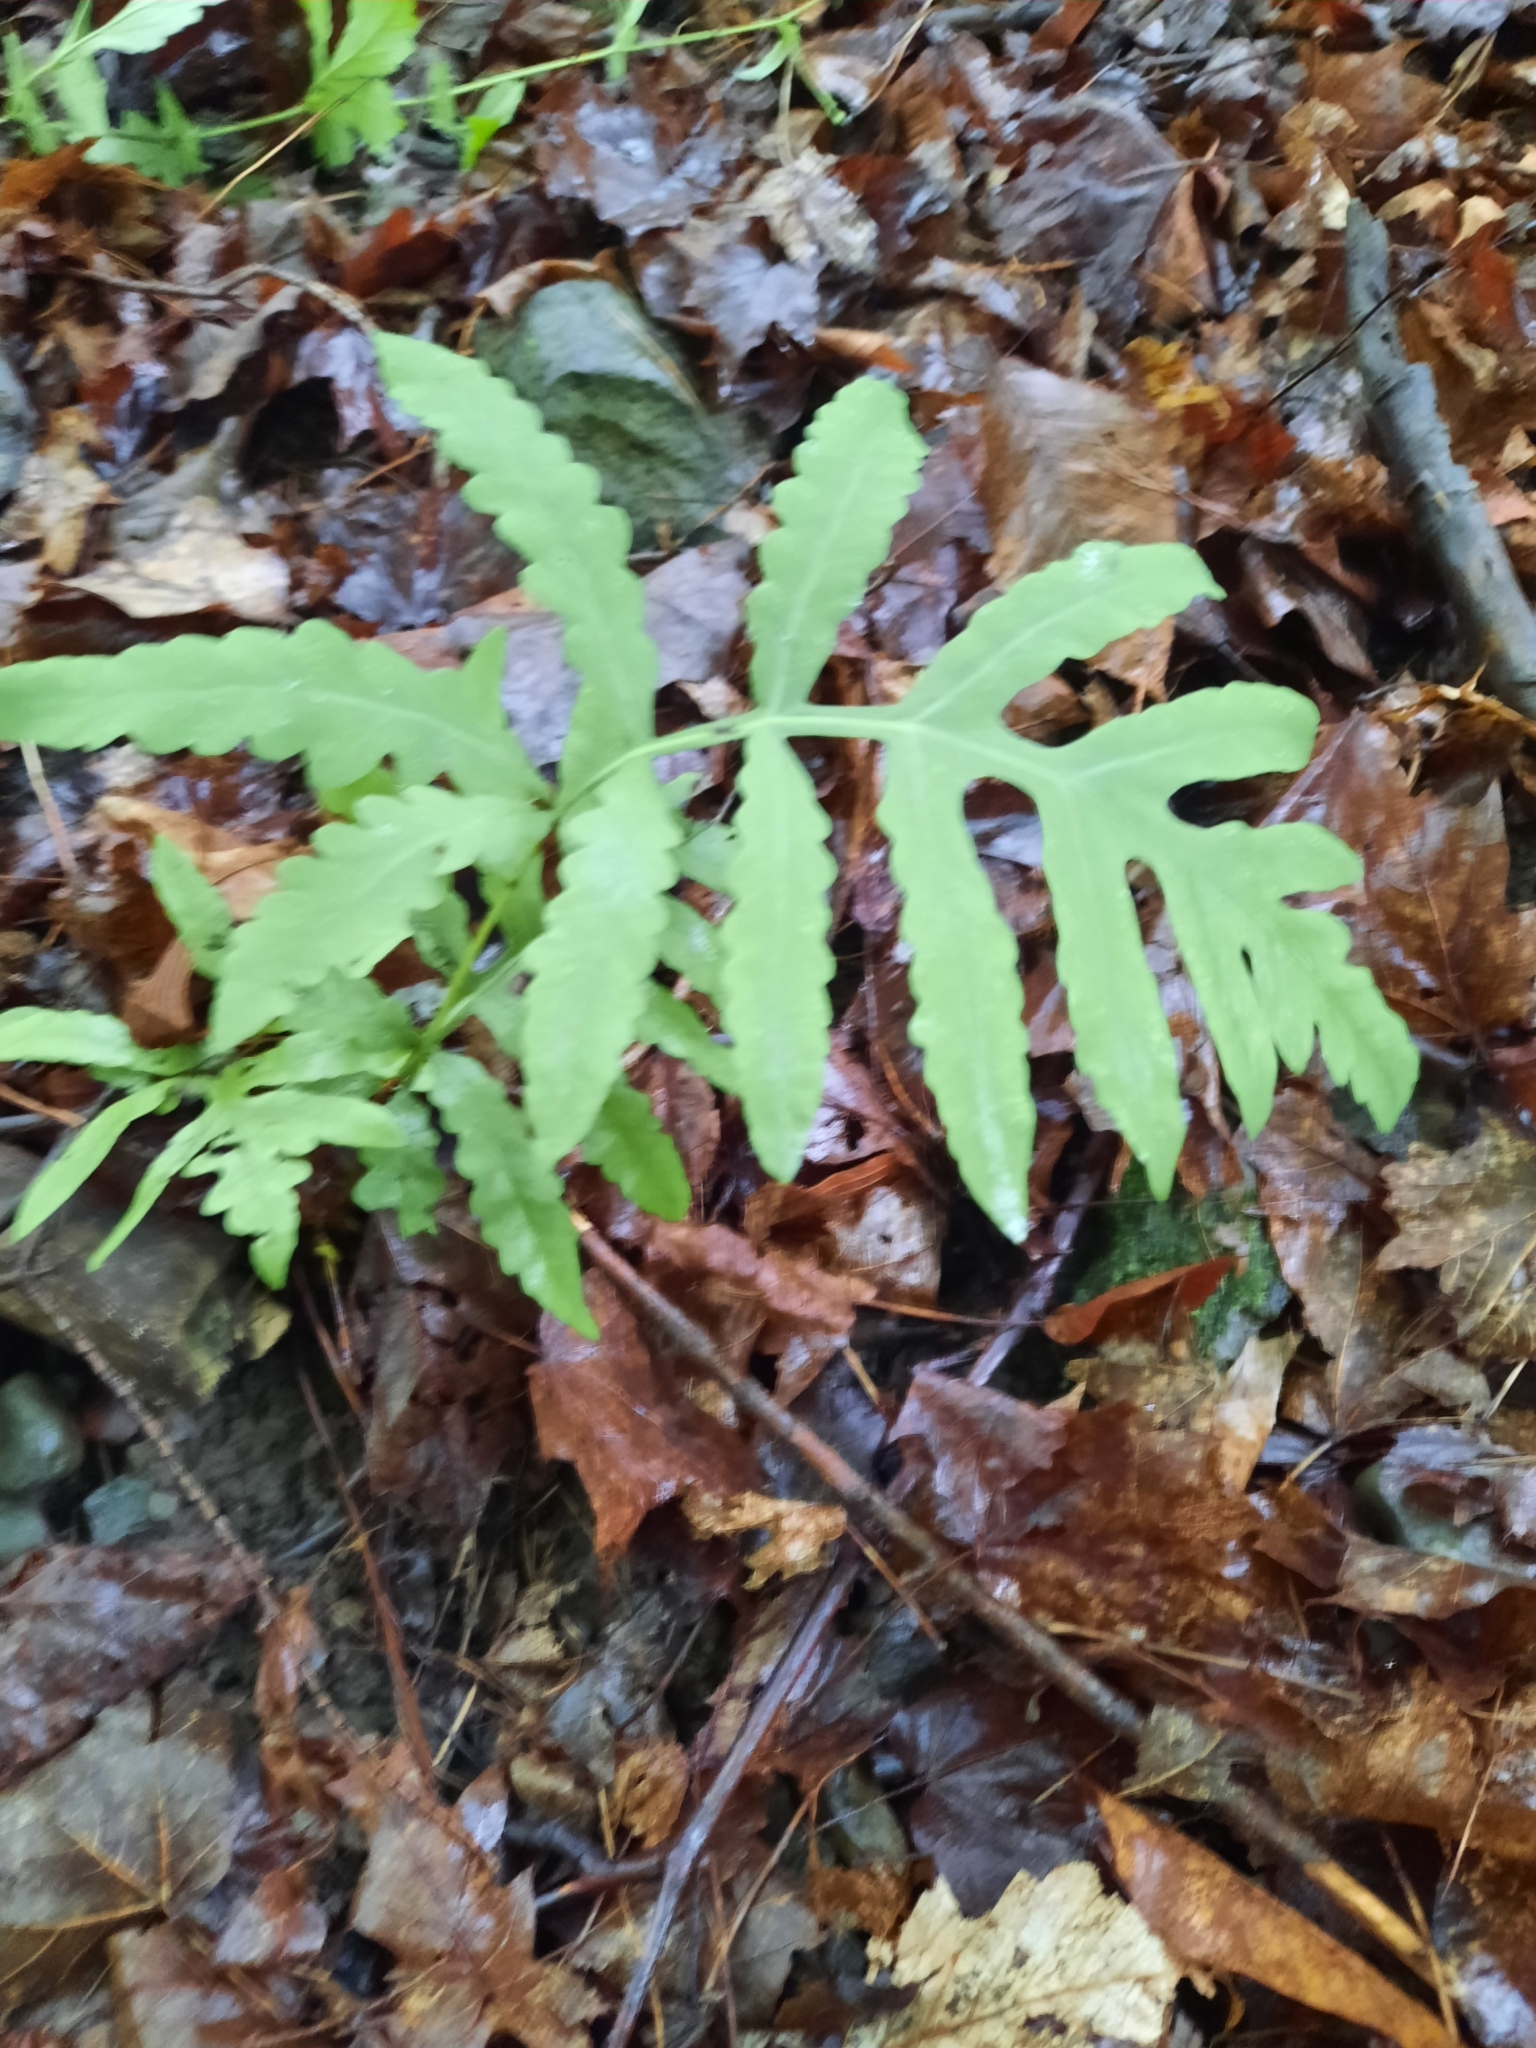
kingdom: Plantae
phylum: Tracheophyta
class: Polypodiopsida
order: Polypodiales
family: Onocleaceae
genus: Onoclea
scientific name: Onoclea sensibilis
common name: Sensitive fern
